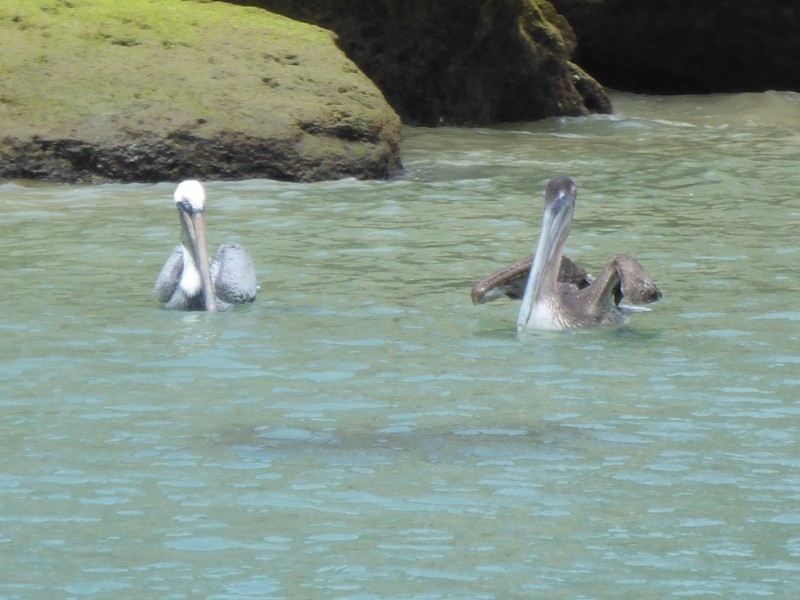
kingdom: Animalia
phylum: Chordata
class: Aves
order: Pelecaniformes
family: Pelecanidae
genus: Pelecanus
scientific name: Pelecanus occidentalis
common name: Brown pelican
